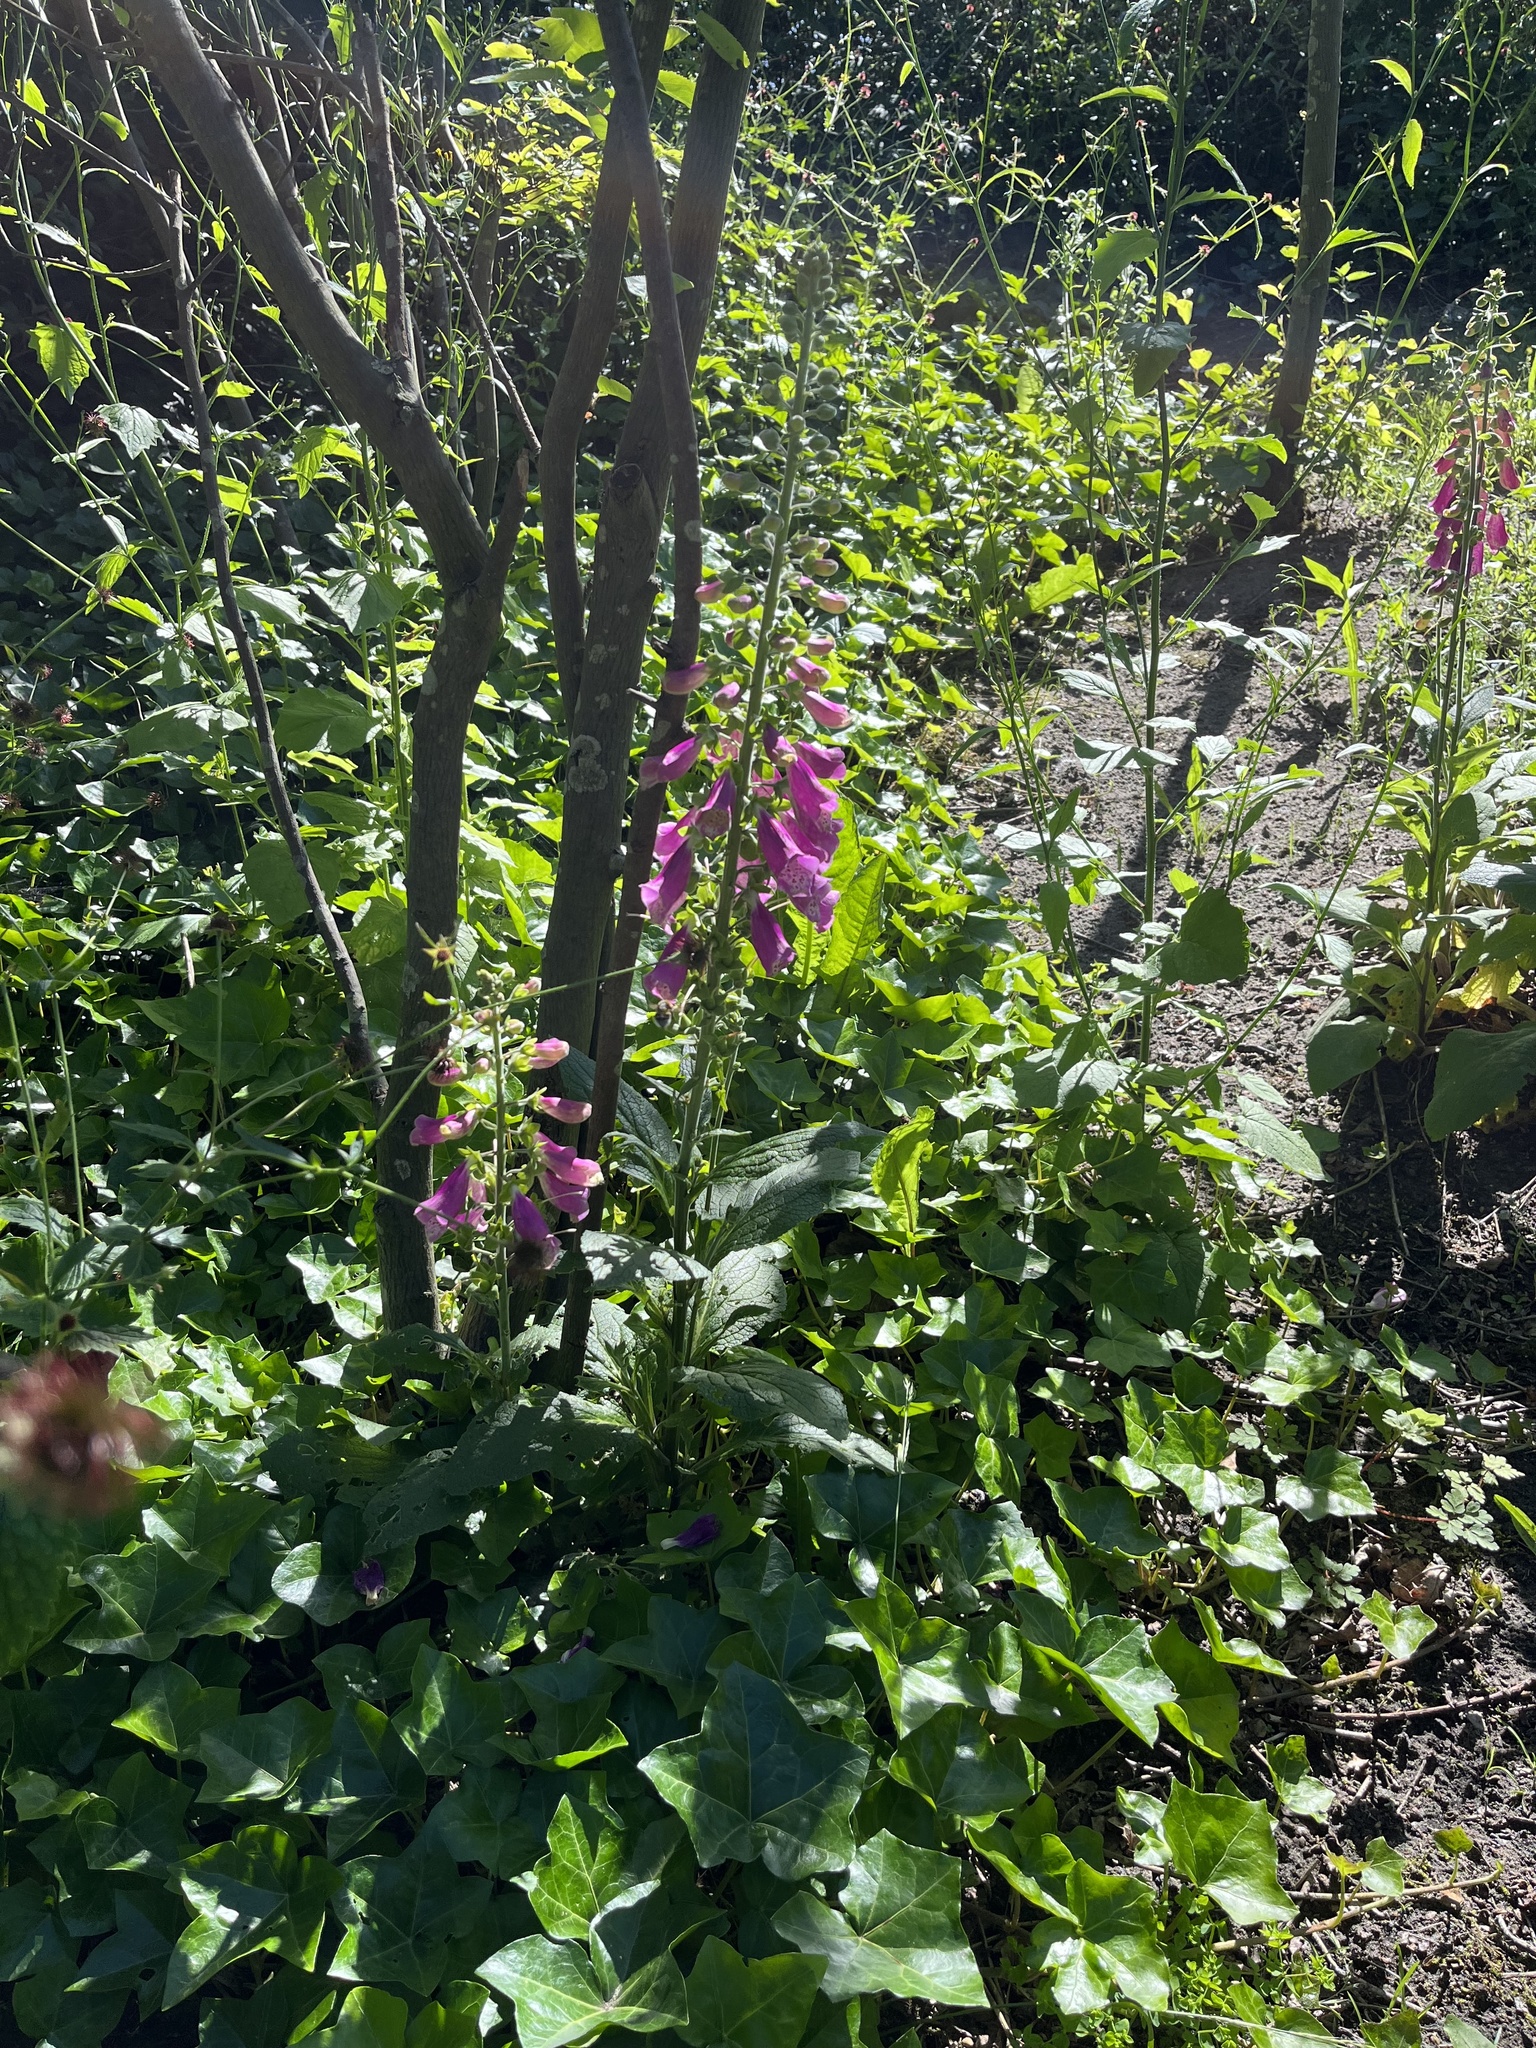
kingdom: Plantae
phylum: Tracheophyta
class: Magnoliopsida
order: Lamiales
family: Plantaginaceae
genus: Digitalis
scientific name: Digitalis purpurea
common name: Foxglove
